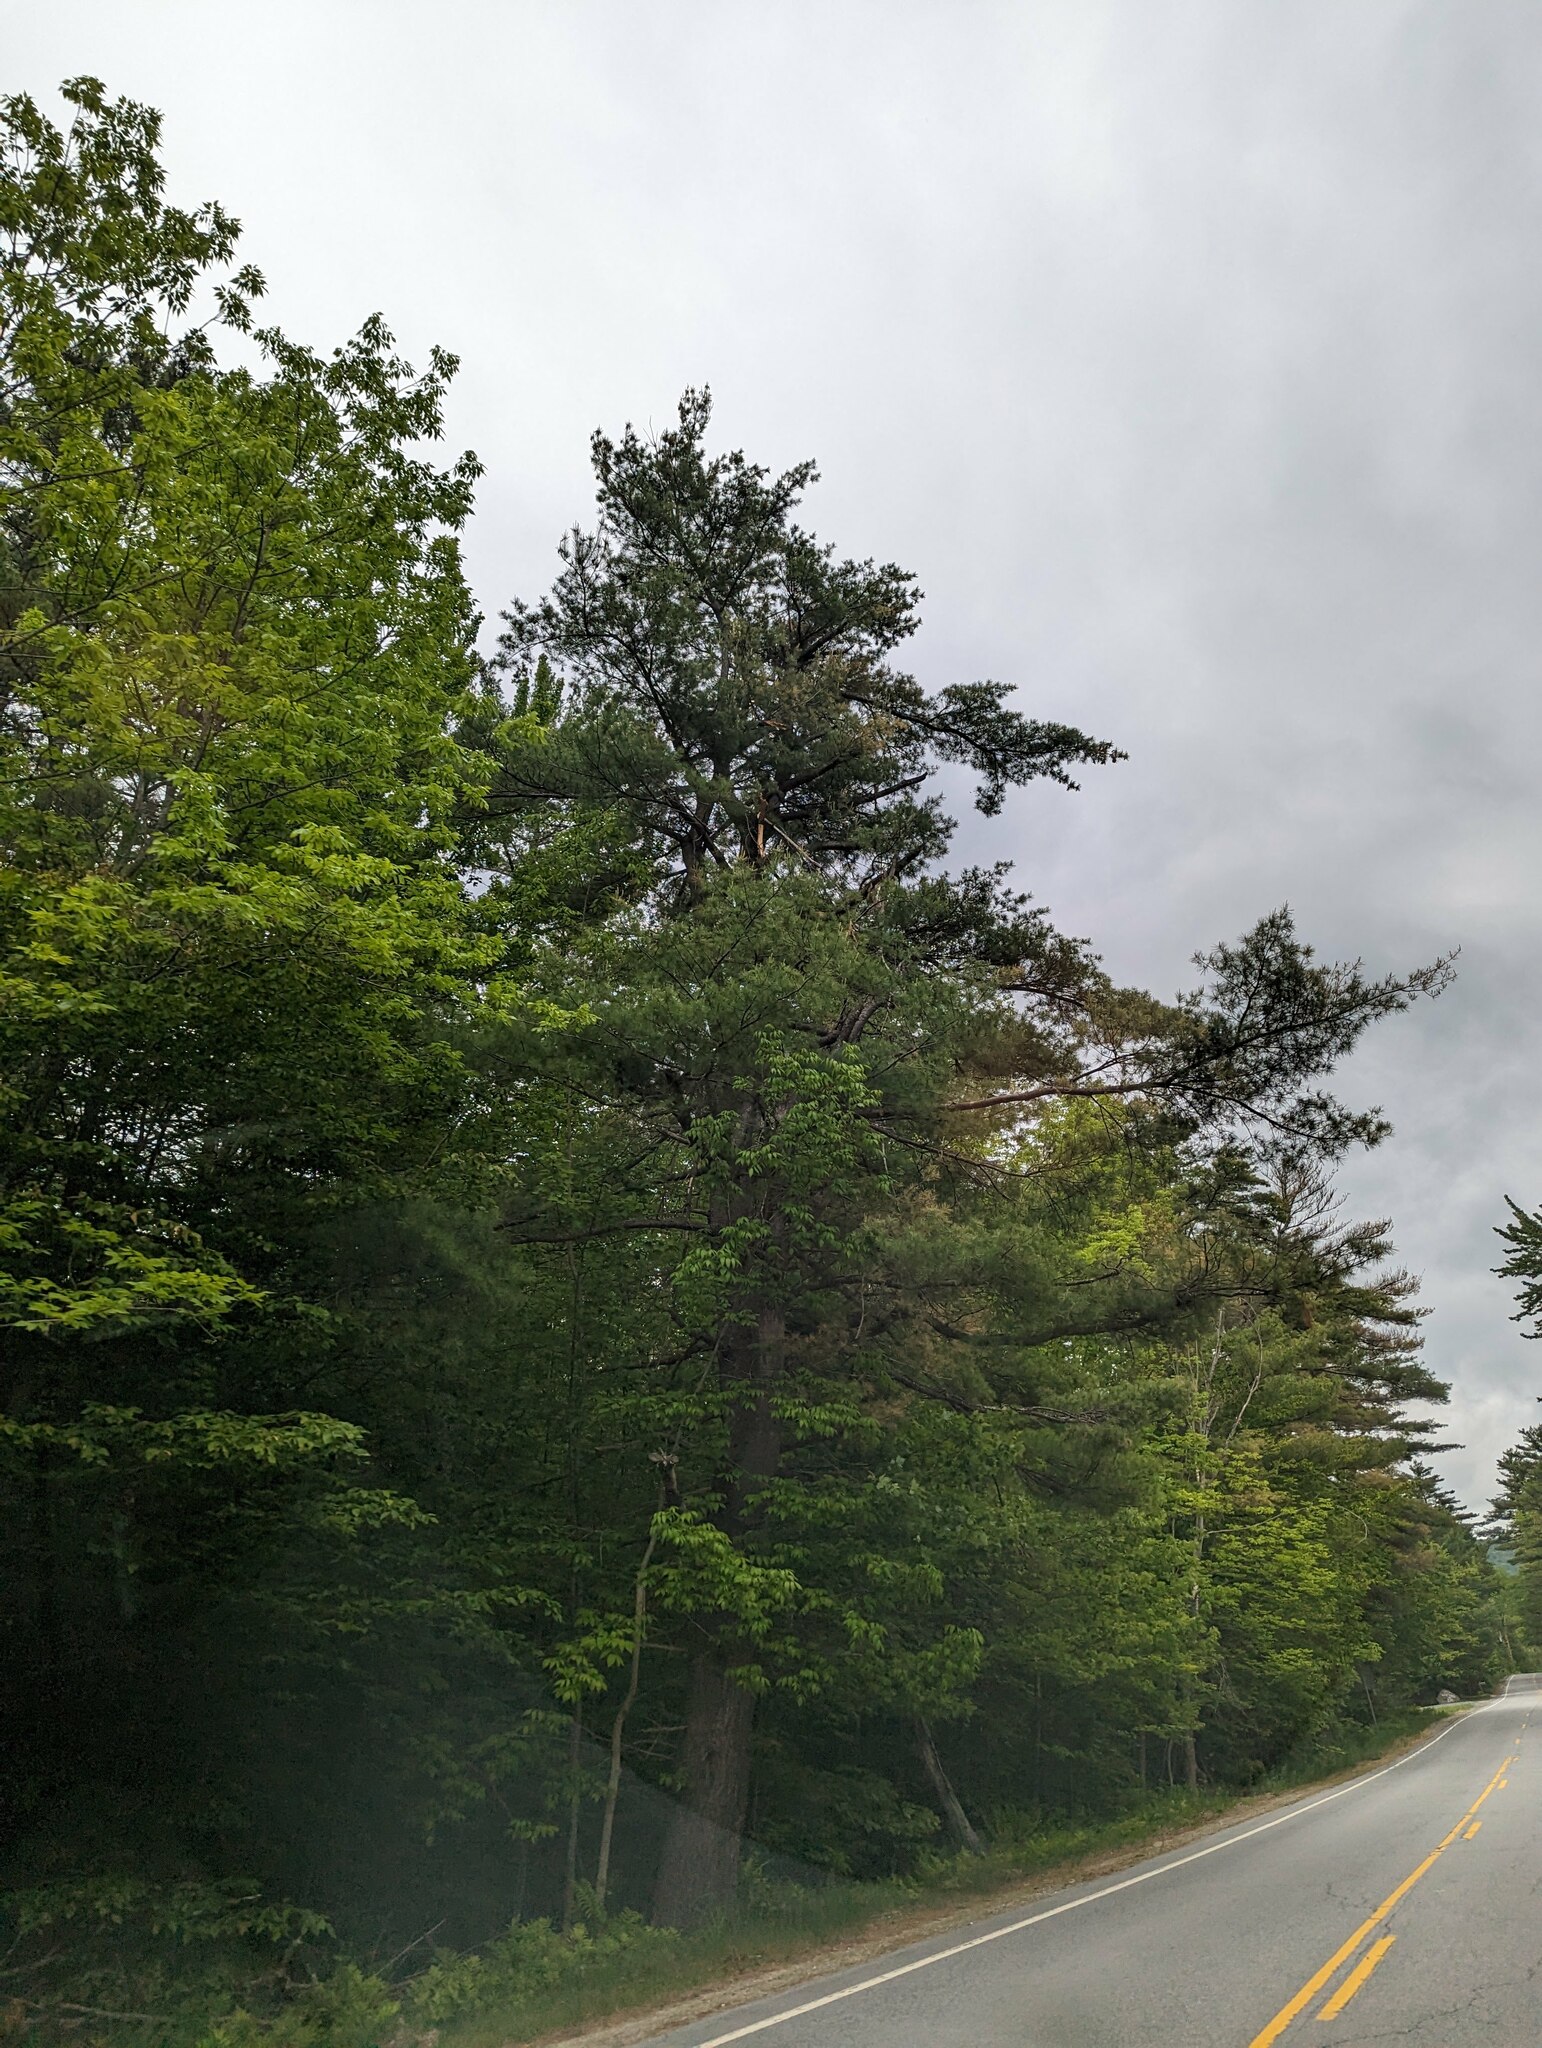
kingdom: Plantae
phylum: Tracheophyta
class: Pinopsida
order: Pinales
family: Pinaceae
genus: Pinus
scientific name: Pinus strobus
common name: Weymouth pine
